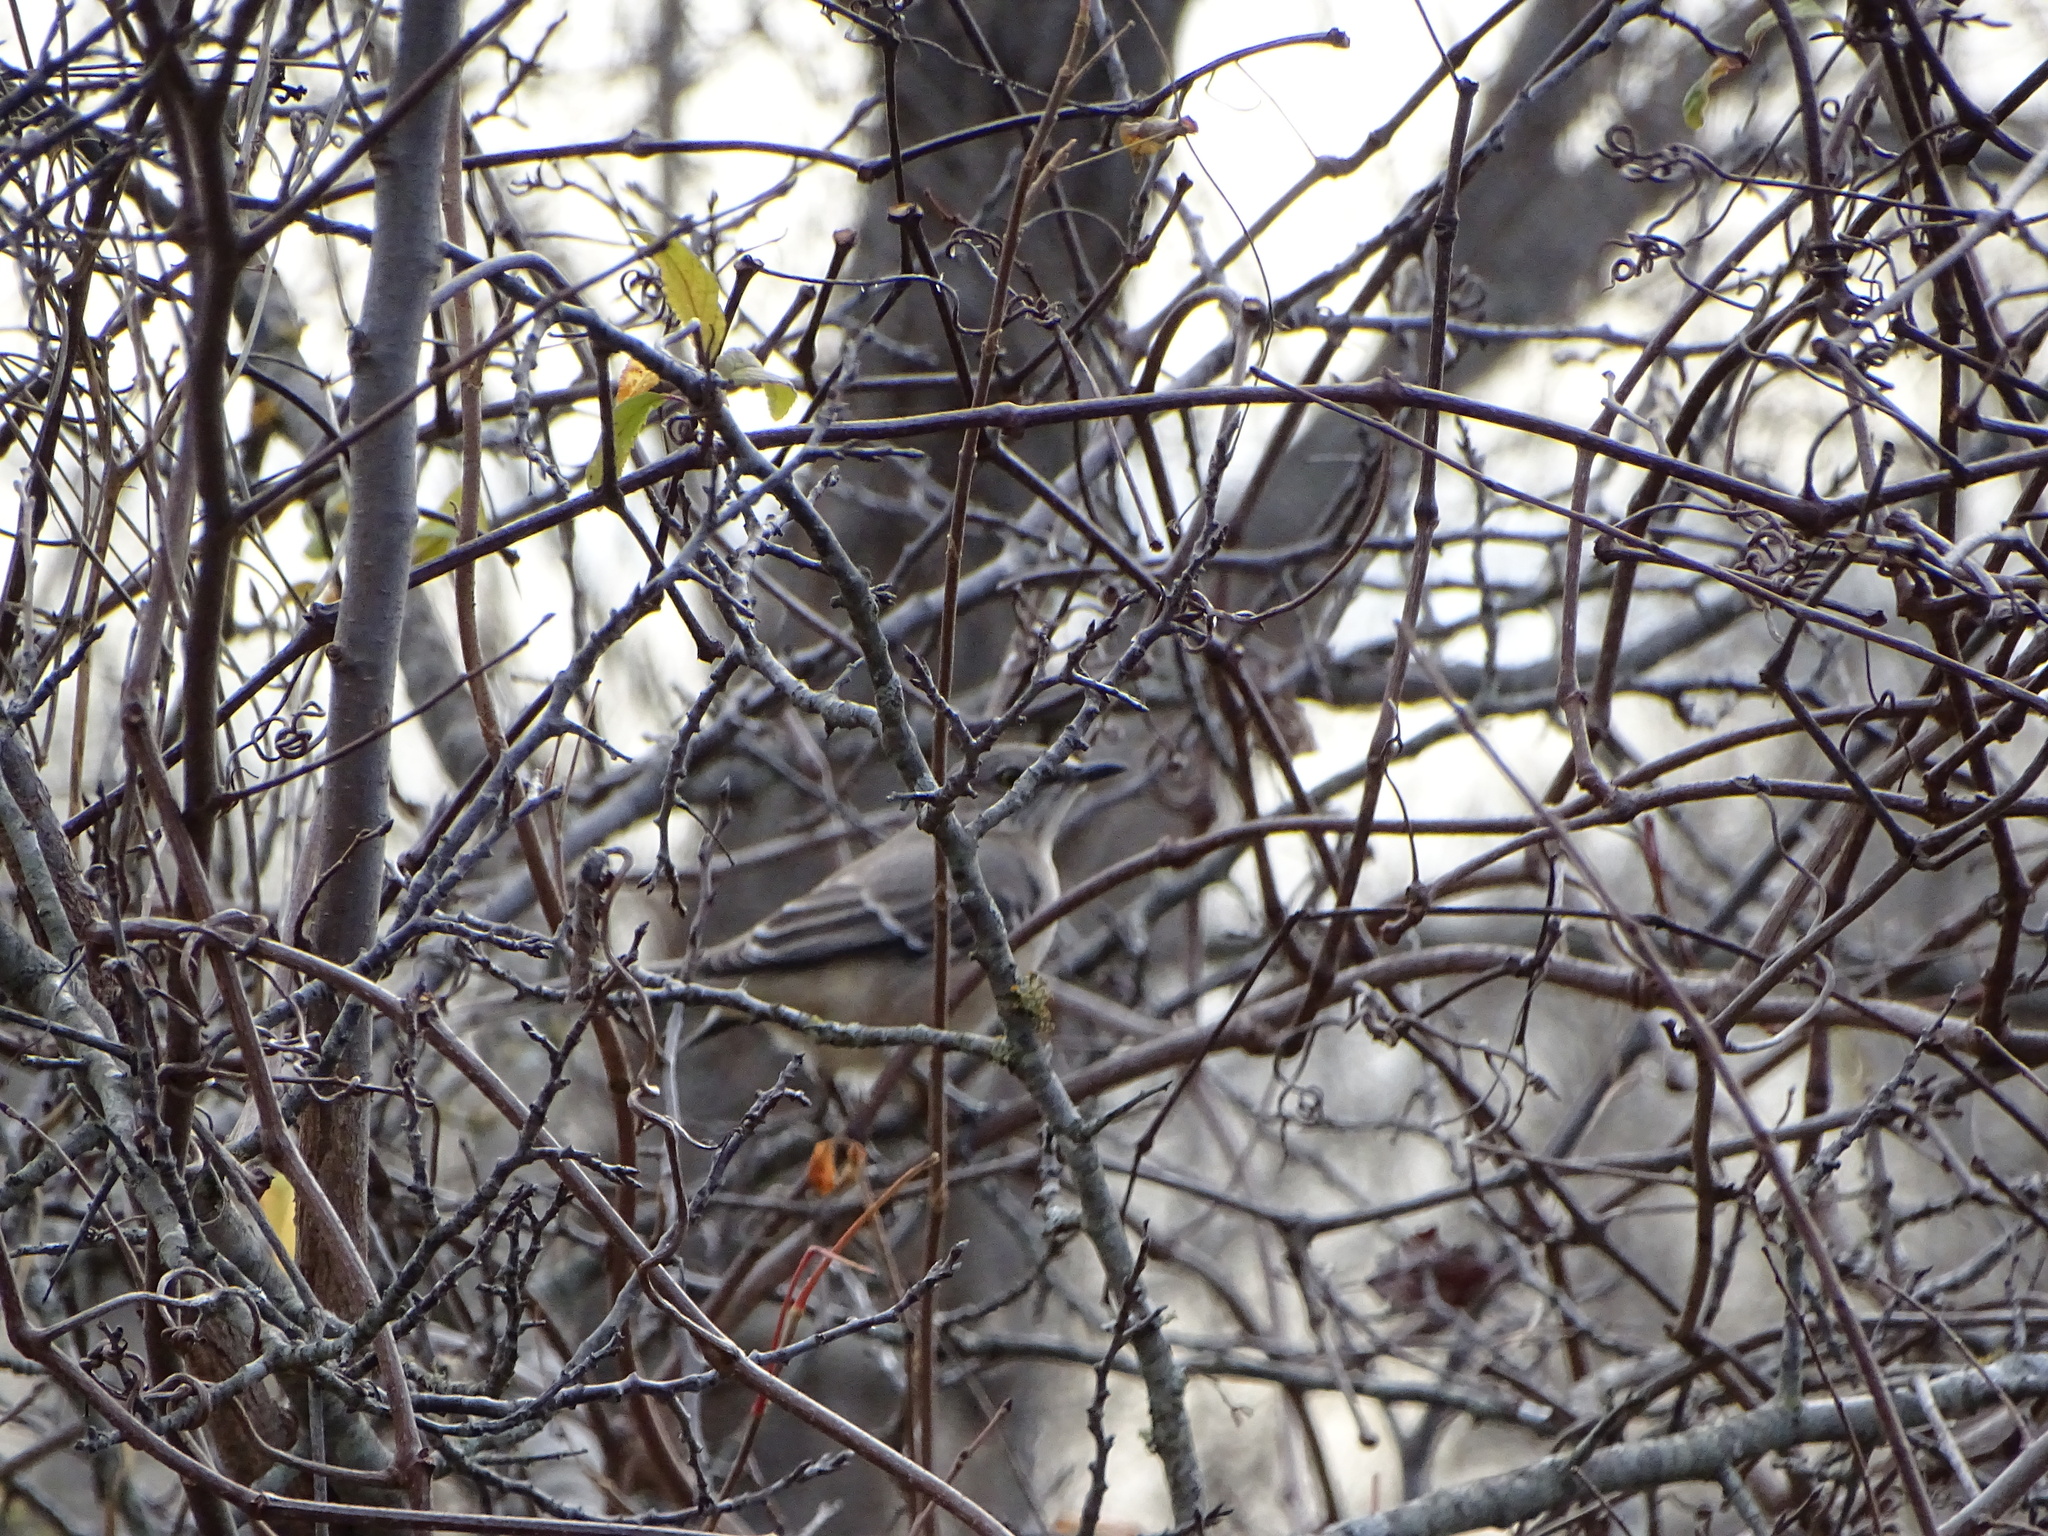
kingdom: Animalia
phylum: Chordata
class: Aves
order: Passeriformes
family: Mimidae
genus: Mimus
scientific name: Mimus polyglottos
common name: Northern mockingbird
